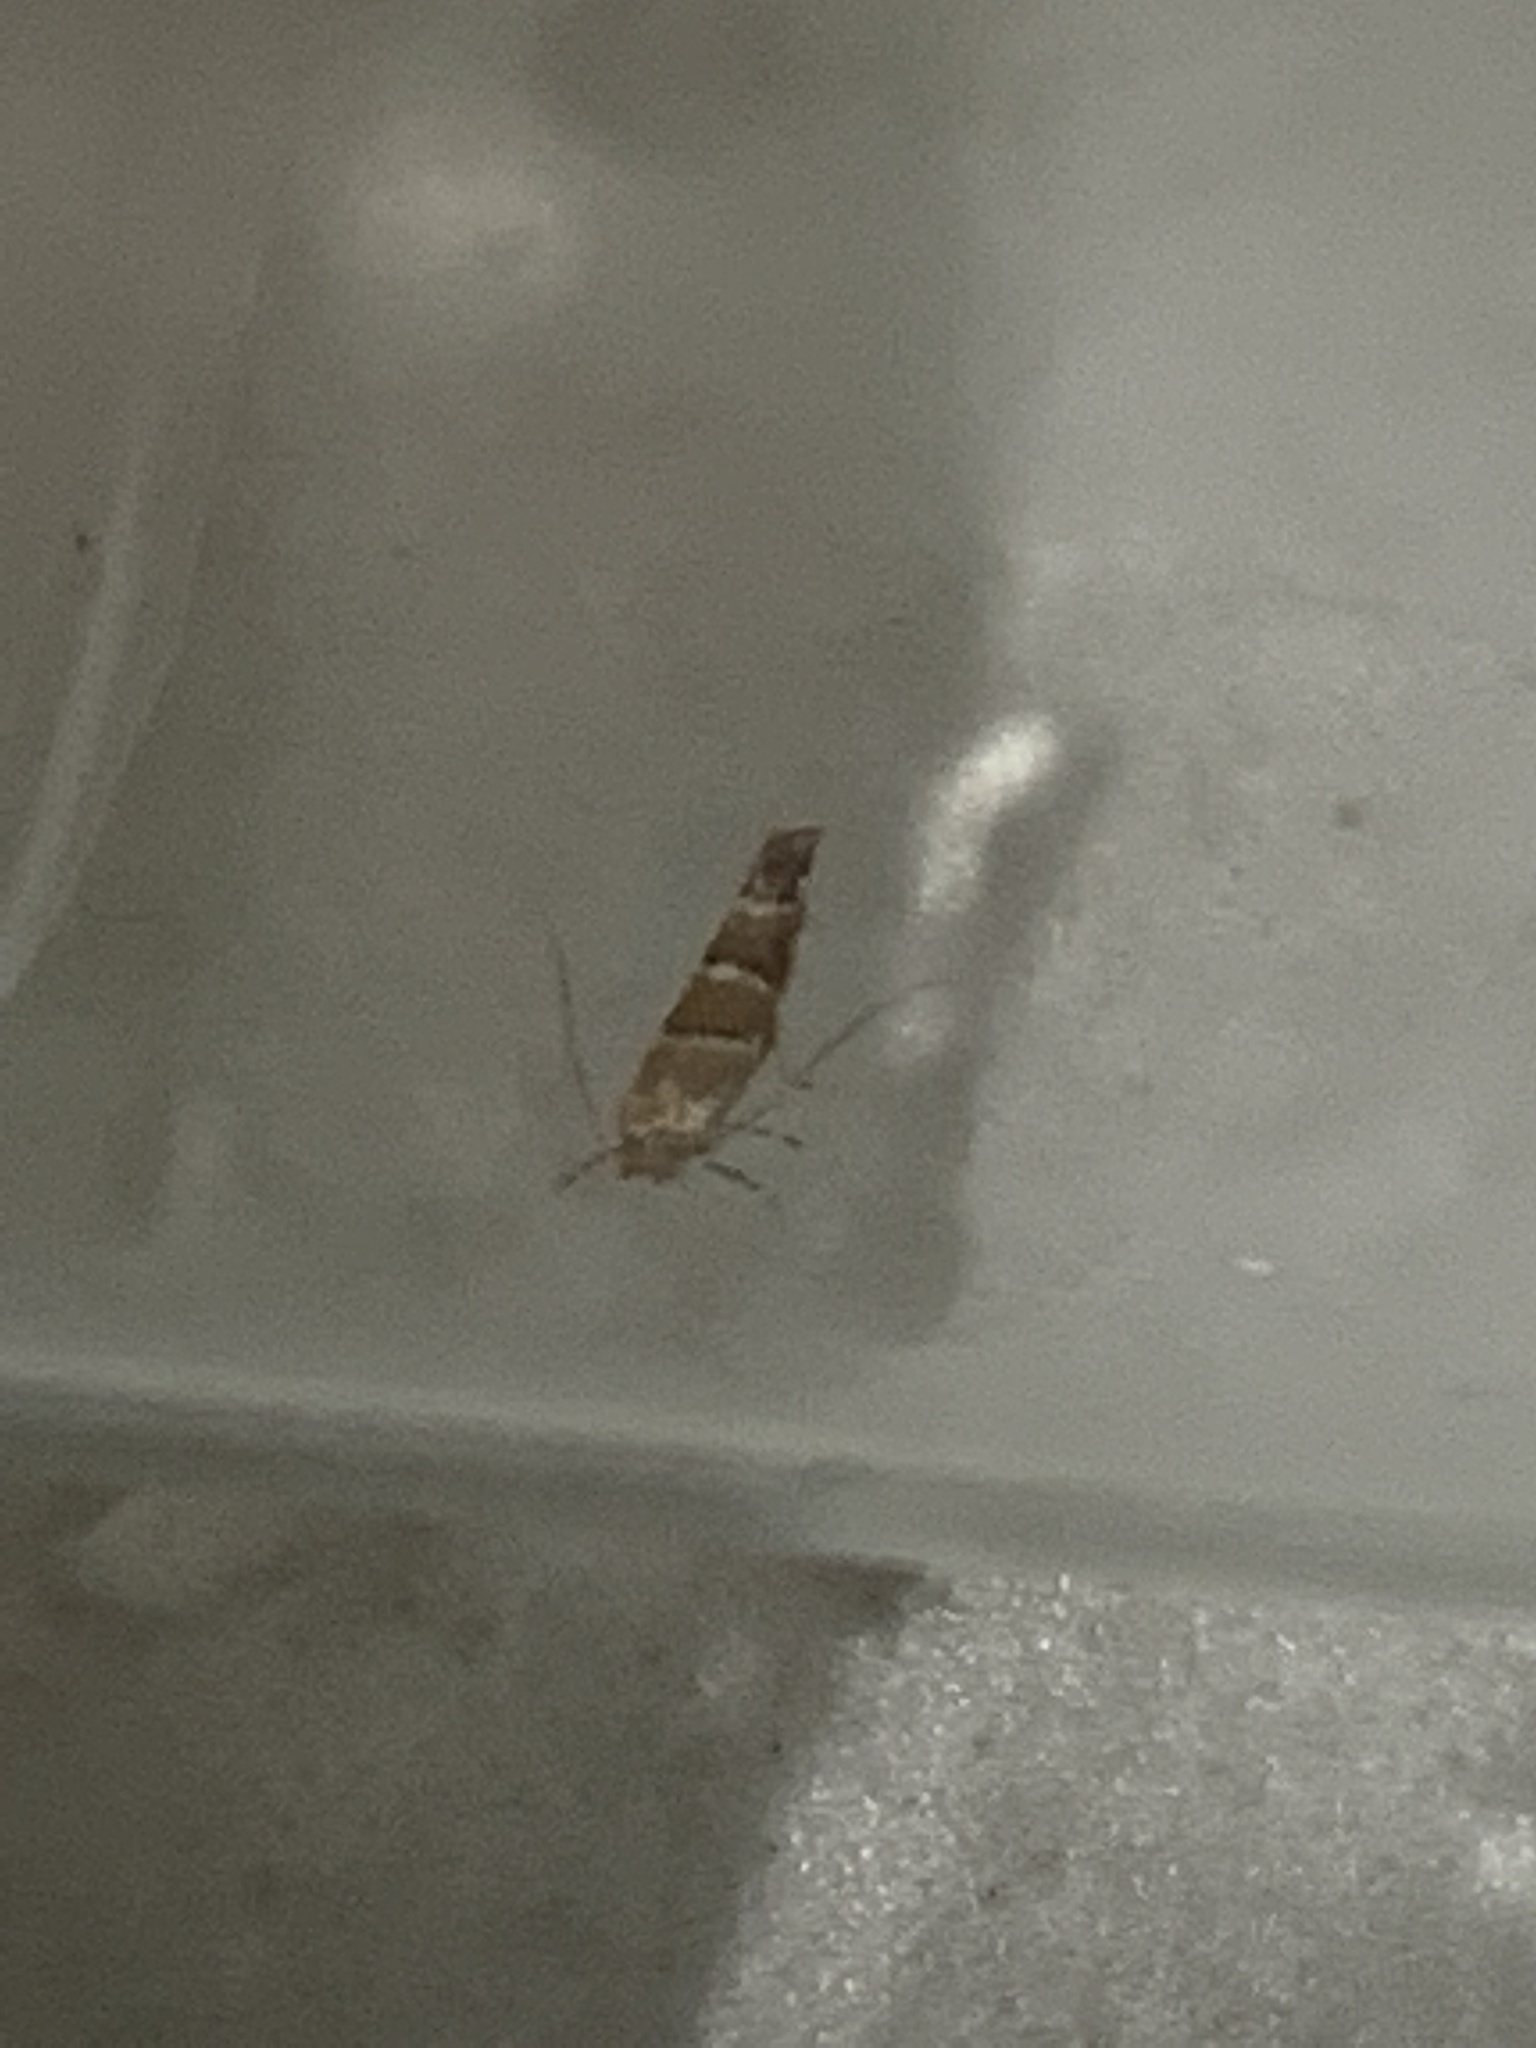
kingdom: Animalia
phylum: Arthropoda
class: Insecta
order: Lepidoptera
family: Gracillariidae
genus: Cameraria
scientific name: Cameraria ohridella
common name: Horse-chestnut leaf-miner
